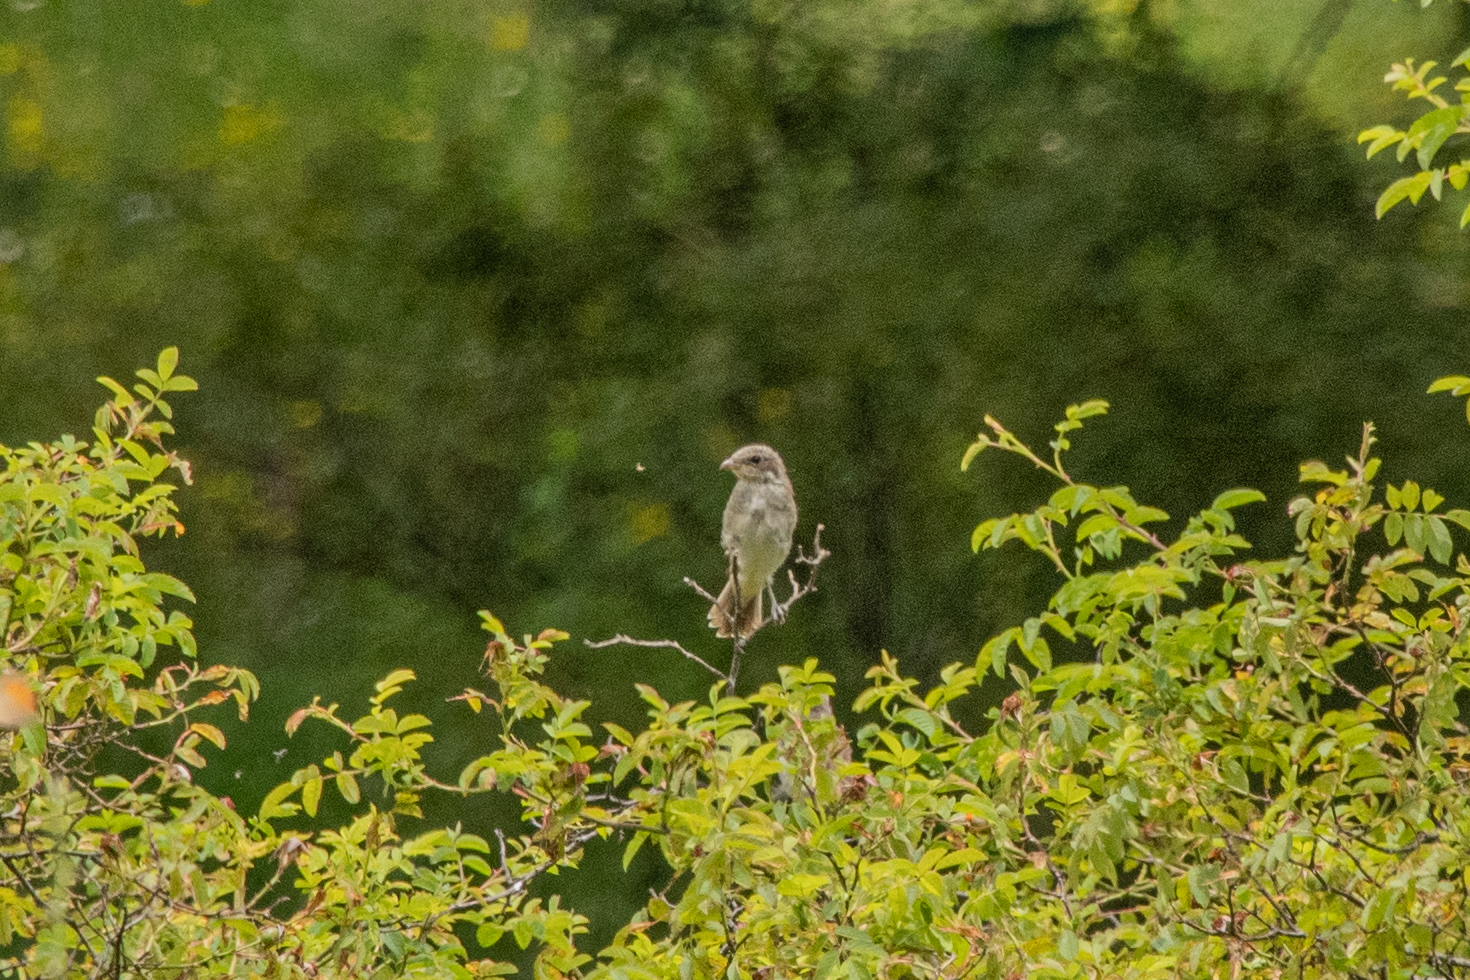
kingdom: Animalia
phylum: Chordata
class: Aves
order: Passeriformes
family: Laniidae
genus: Lanius
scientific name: Lanius collurio
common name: Red-backed shrike
